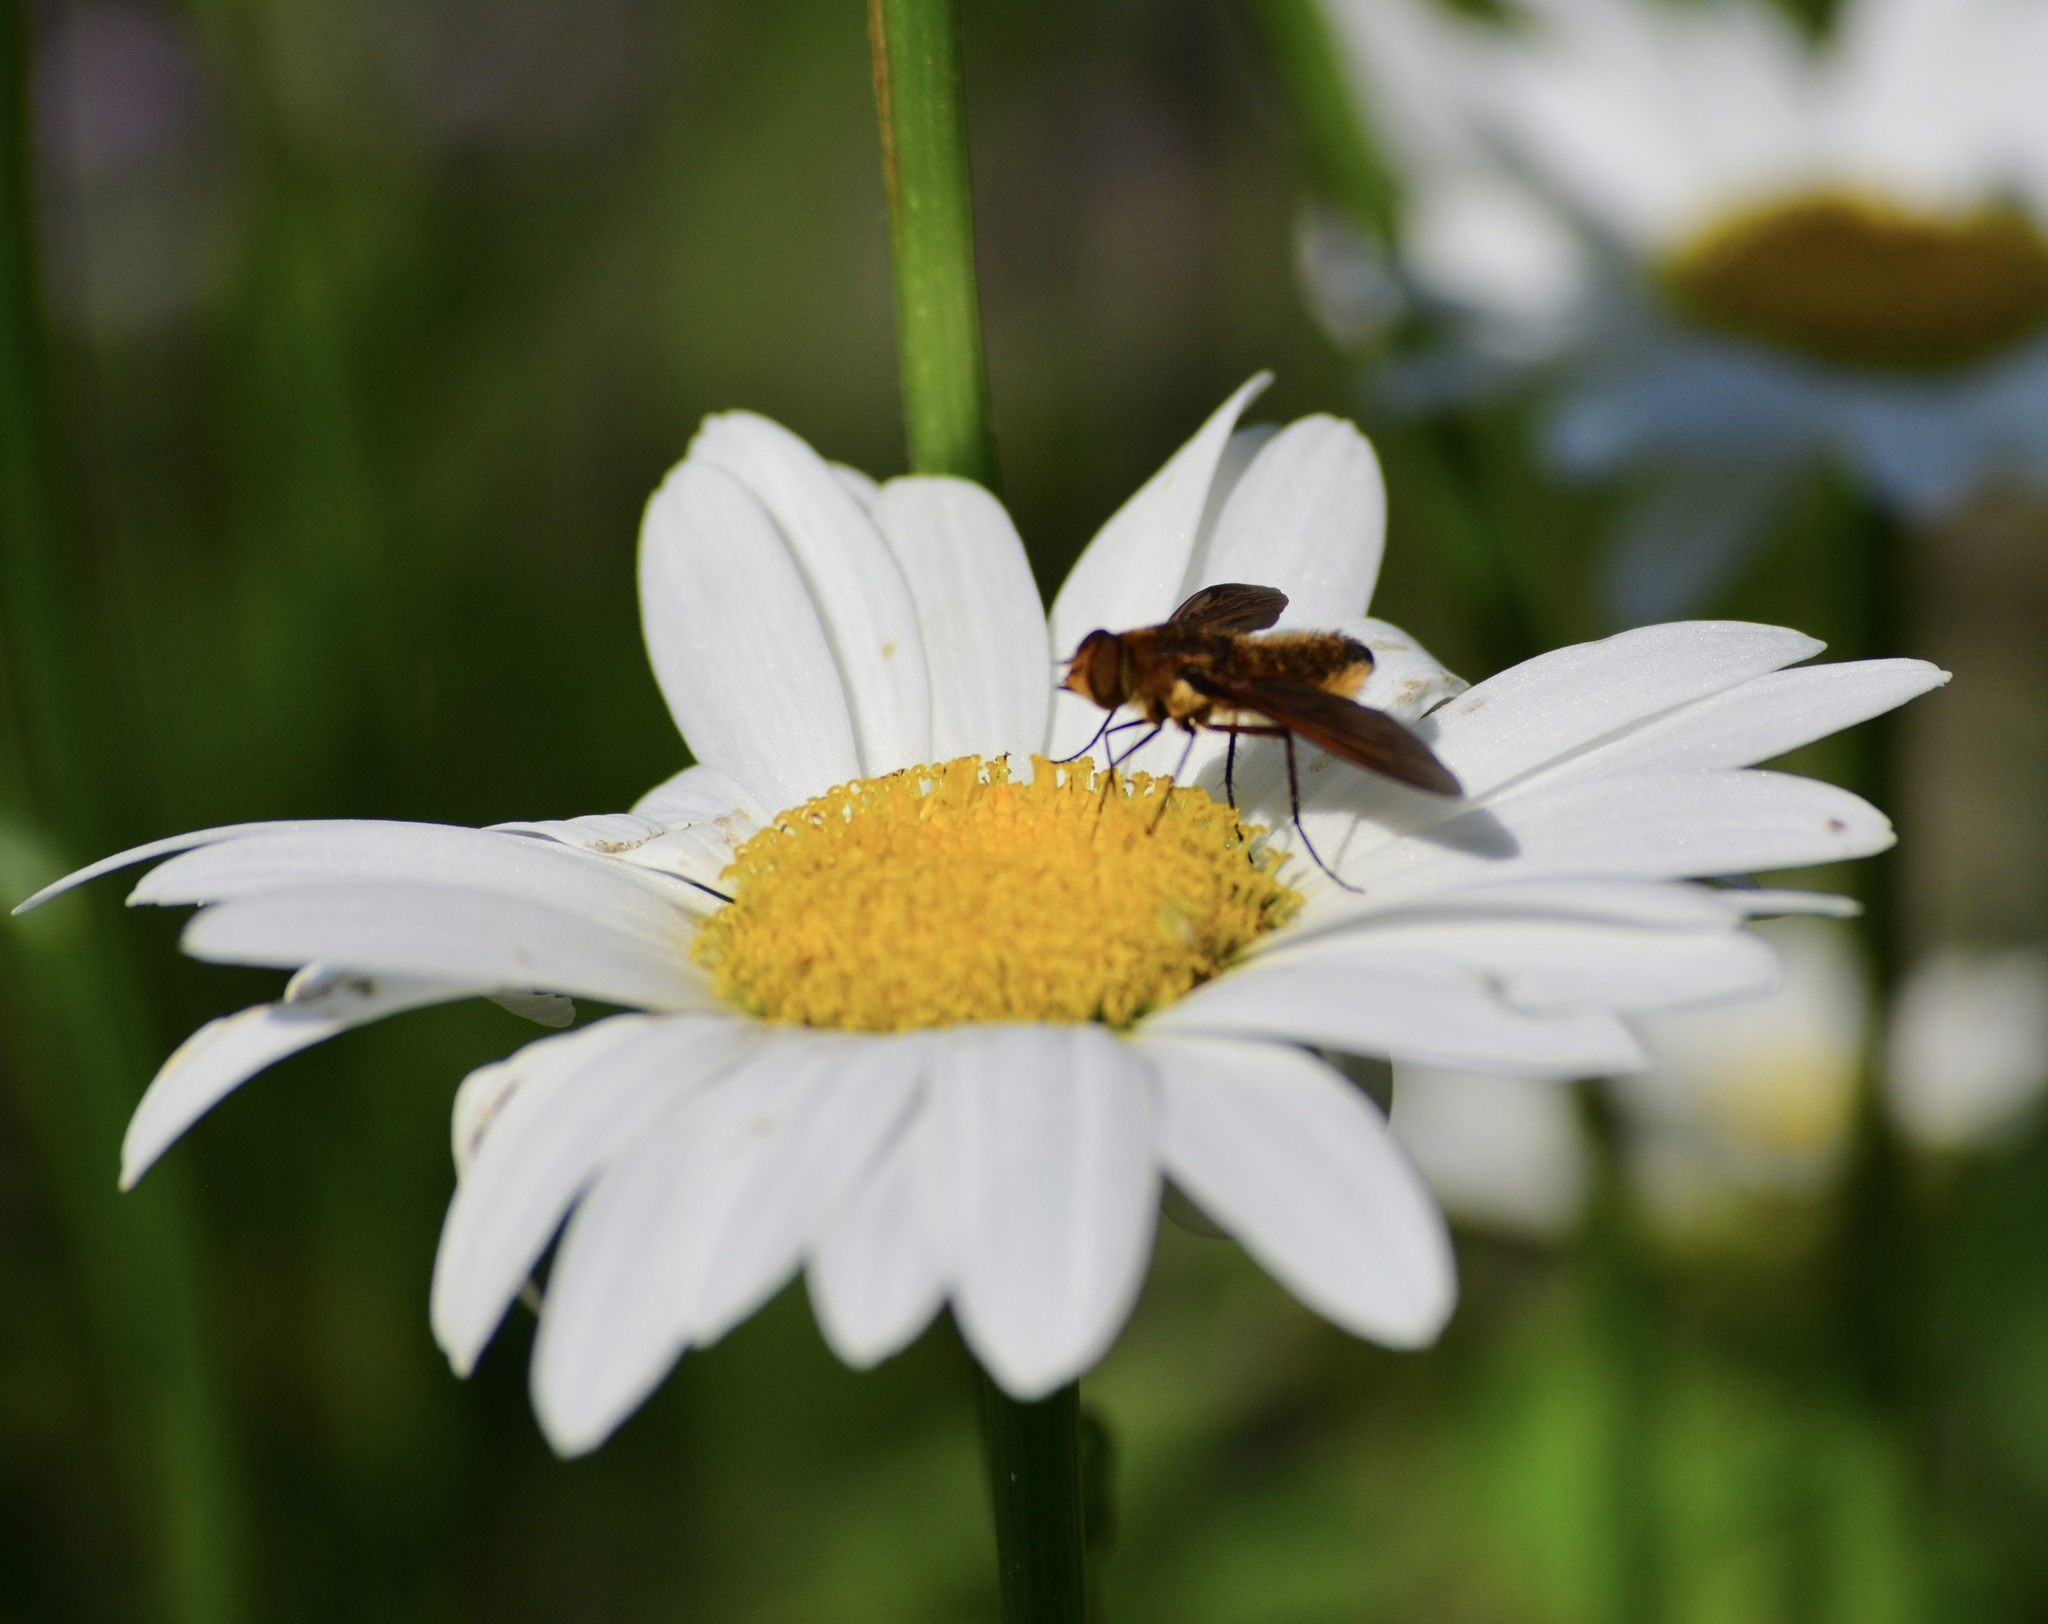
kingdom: Animalia
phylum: Arthropoda
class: Insecta
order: Diptera
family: Bombyliidae
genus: Poecilanthrax
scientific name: Poecilanthrax tegminipennis
